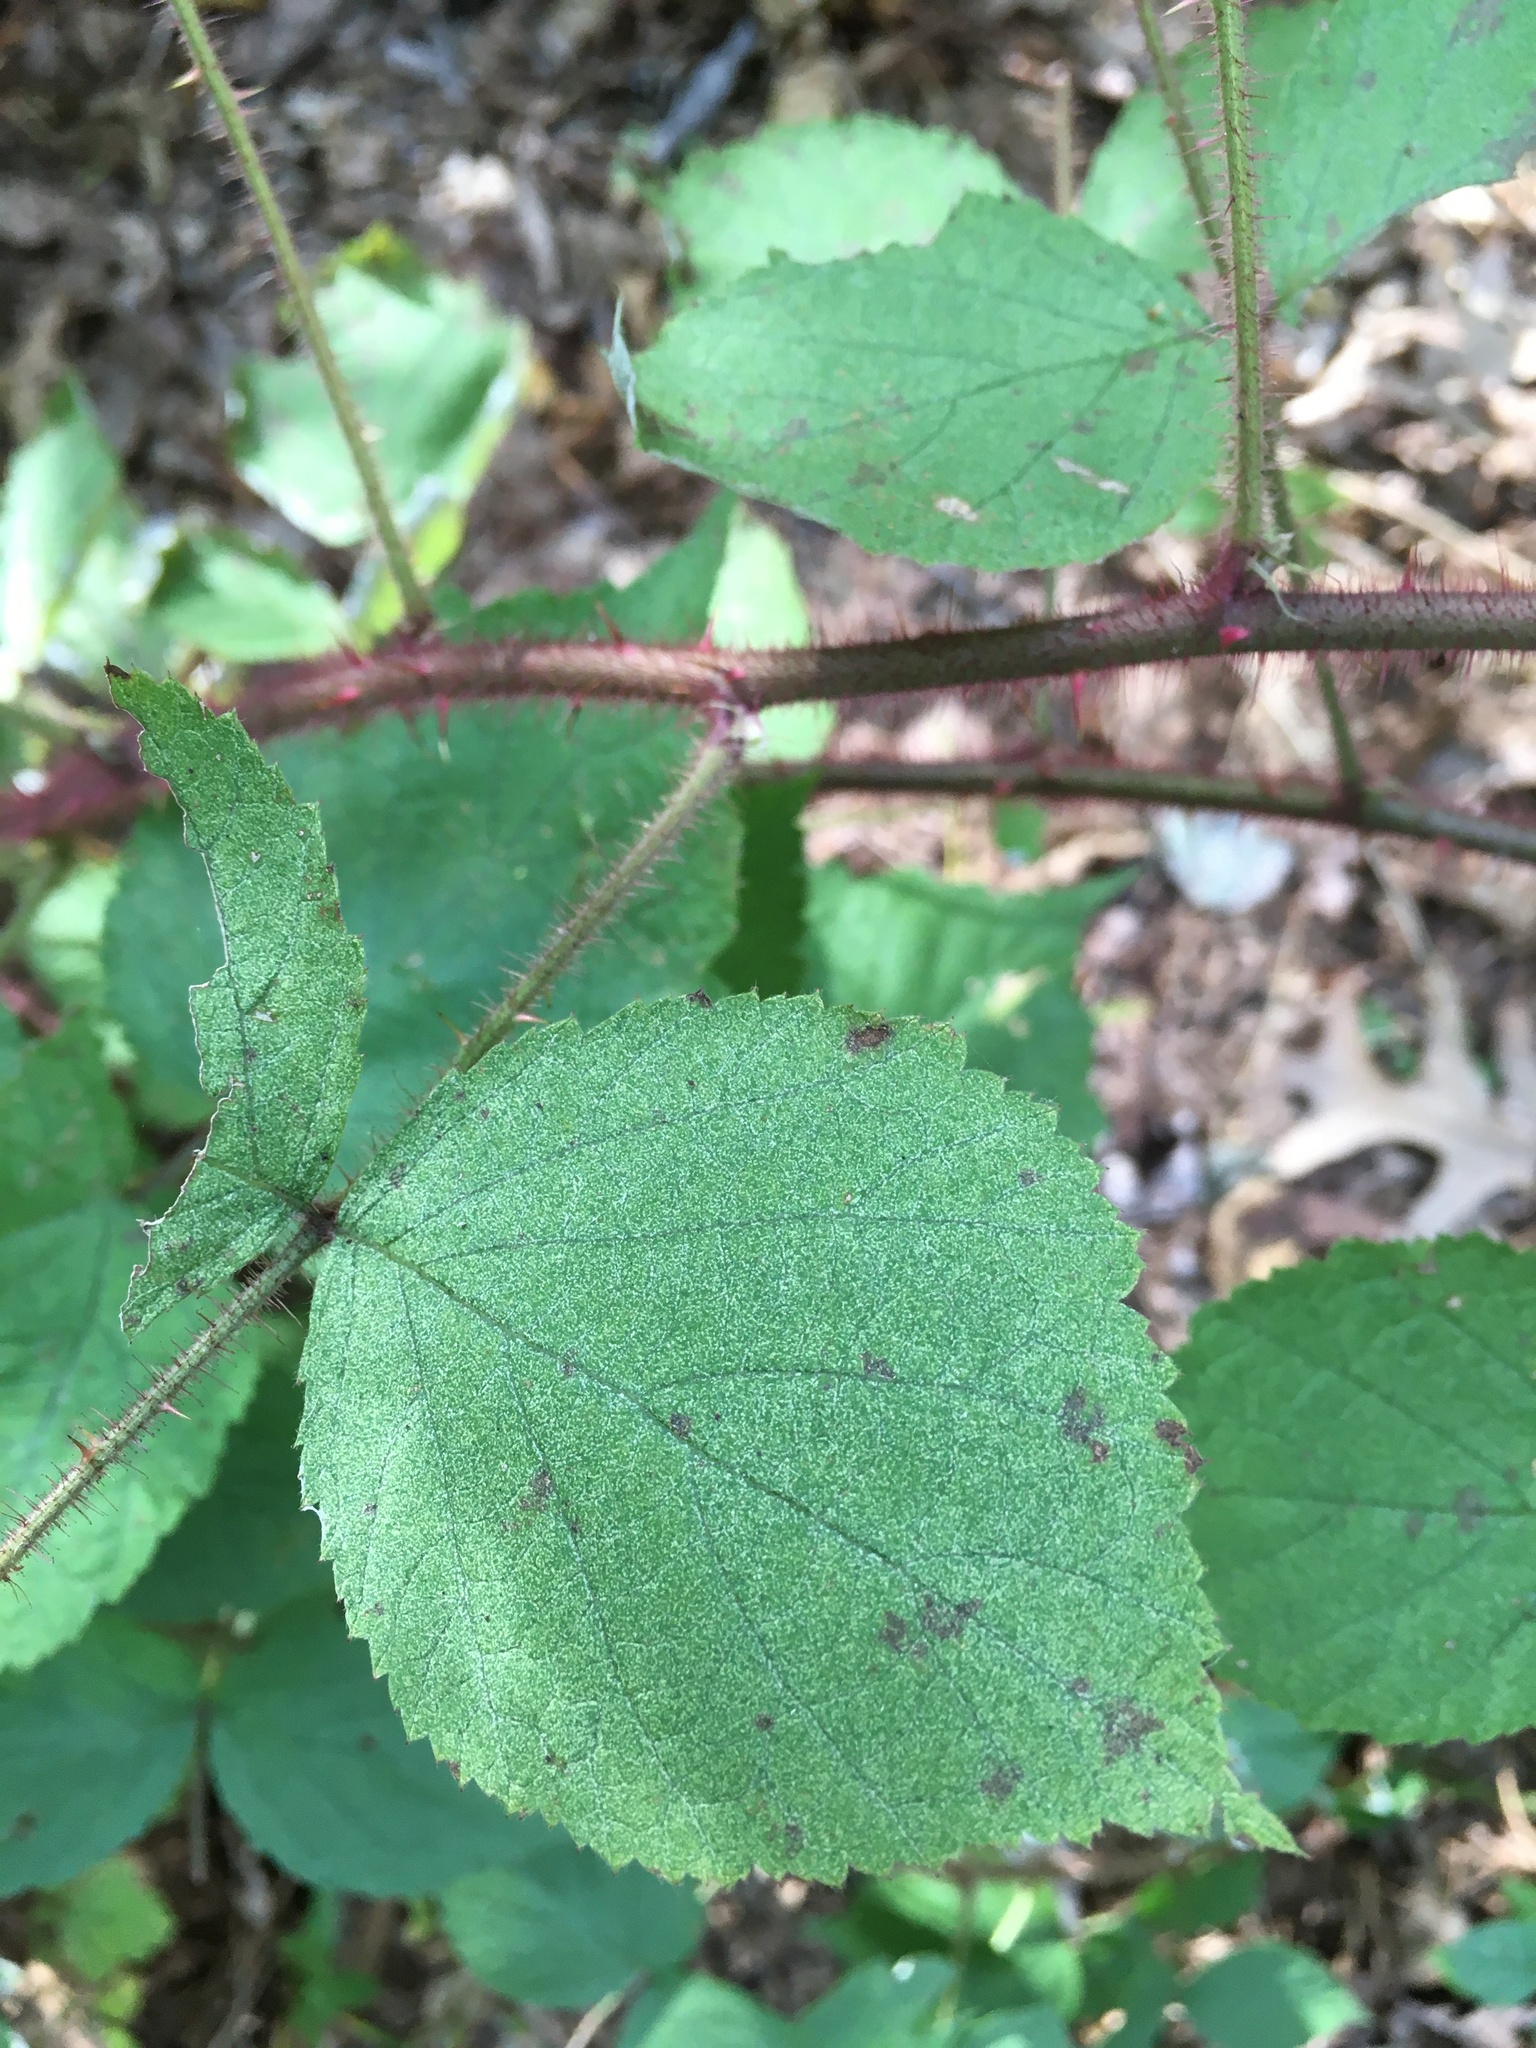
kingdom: Plantae
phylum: Tracheophyta
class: Magnoliopsida
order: Rosales
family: Rosaceae
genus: Rubus
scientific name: Rubus phoenicolasius
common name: Japanese wineberry
